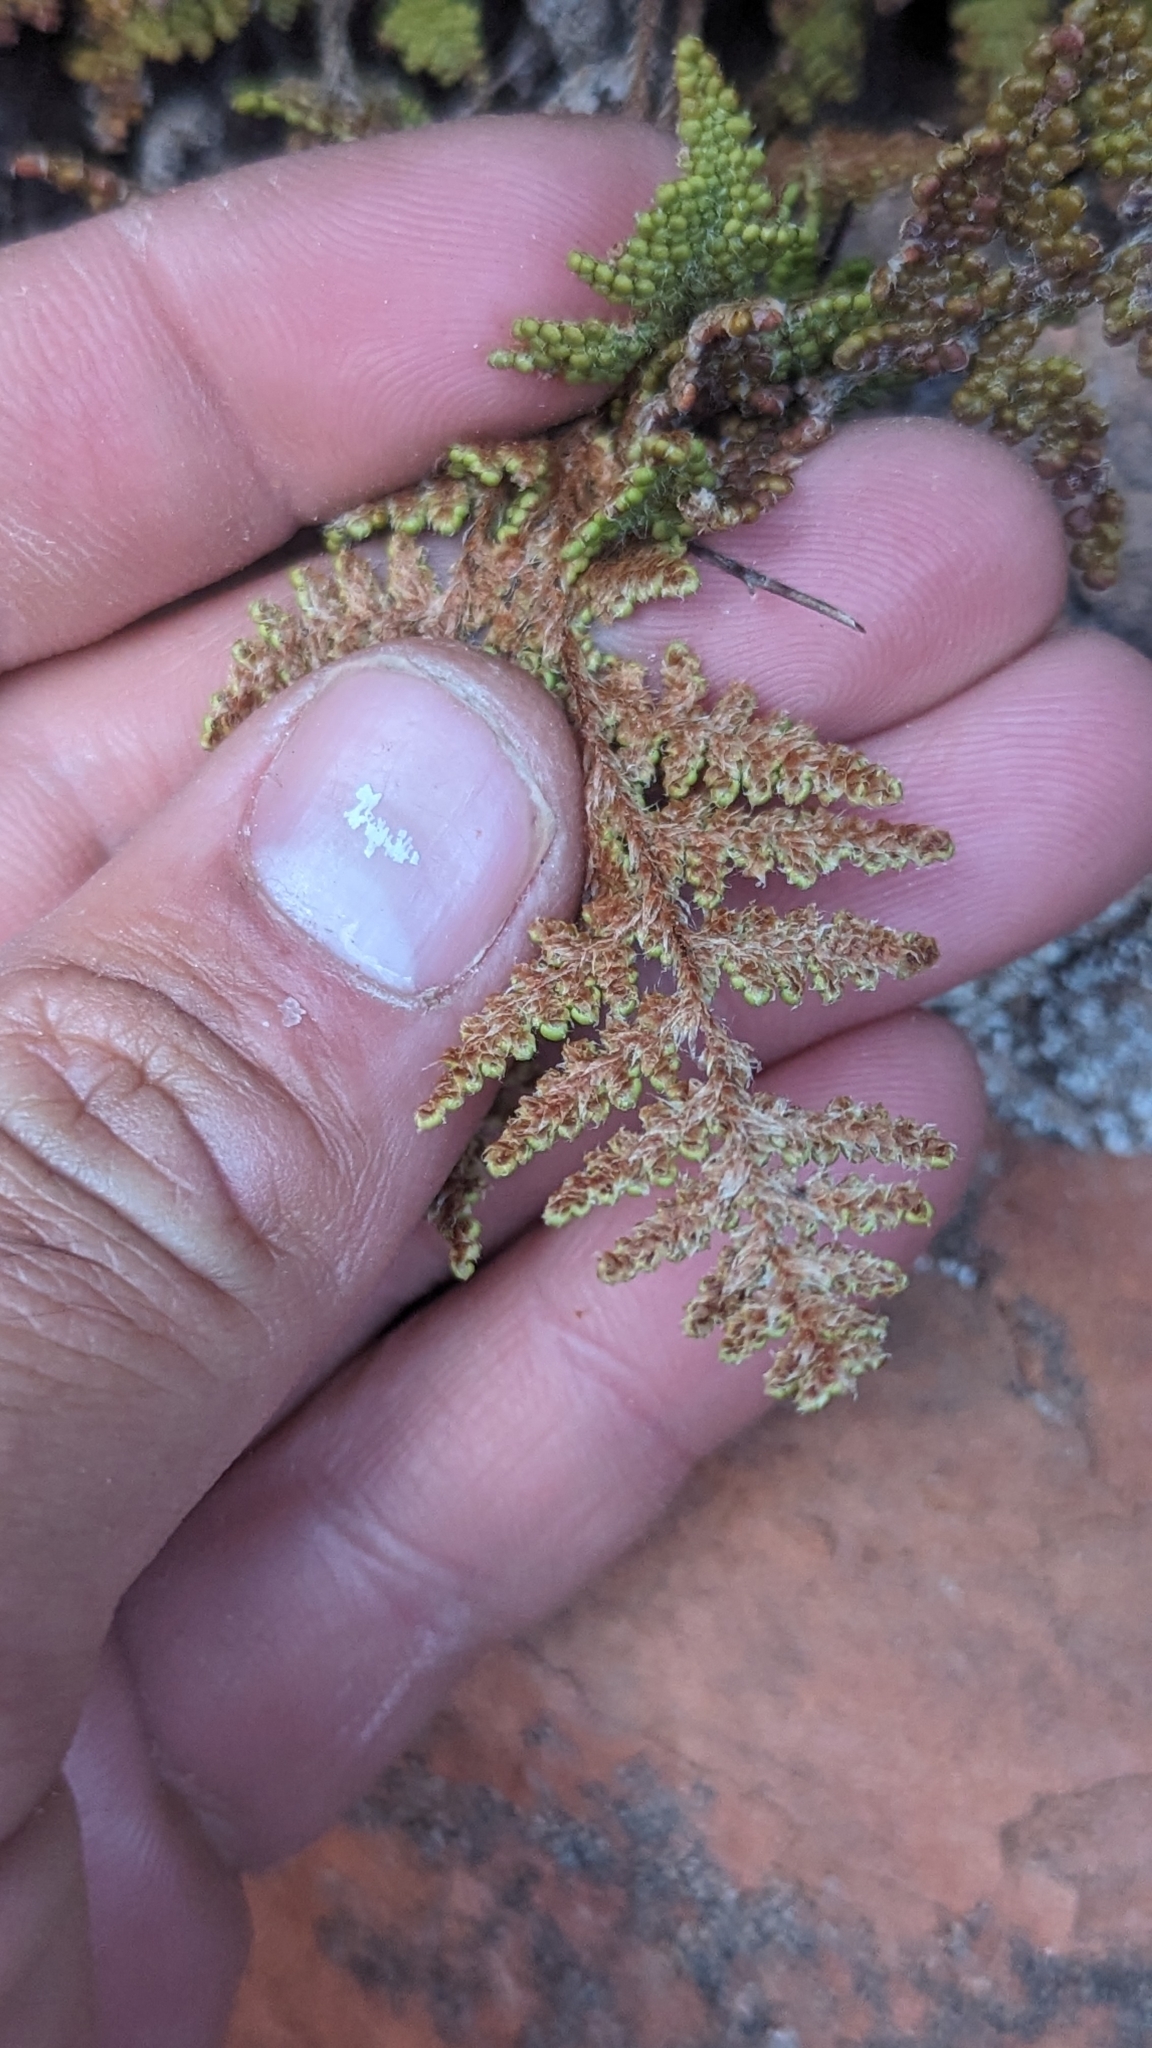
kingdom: Plantae
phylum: Tracheophyta
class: Polypodiopsida
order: Polypodiales
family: Pteridaceae
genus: Myriopteris
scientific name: Myriopteris covillei
